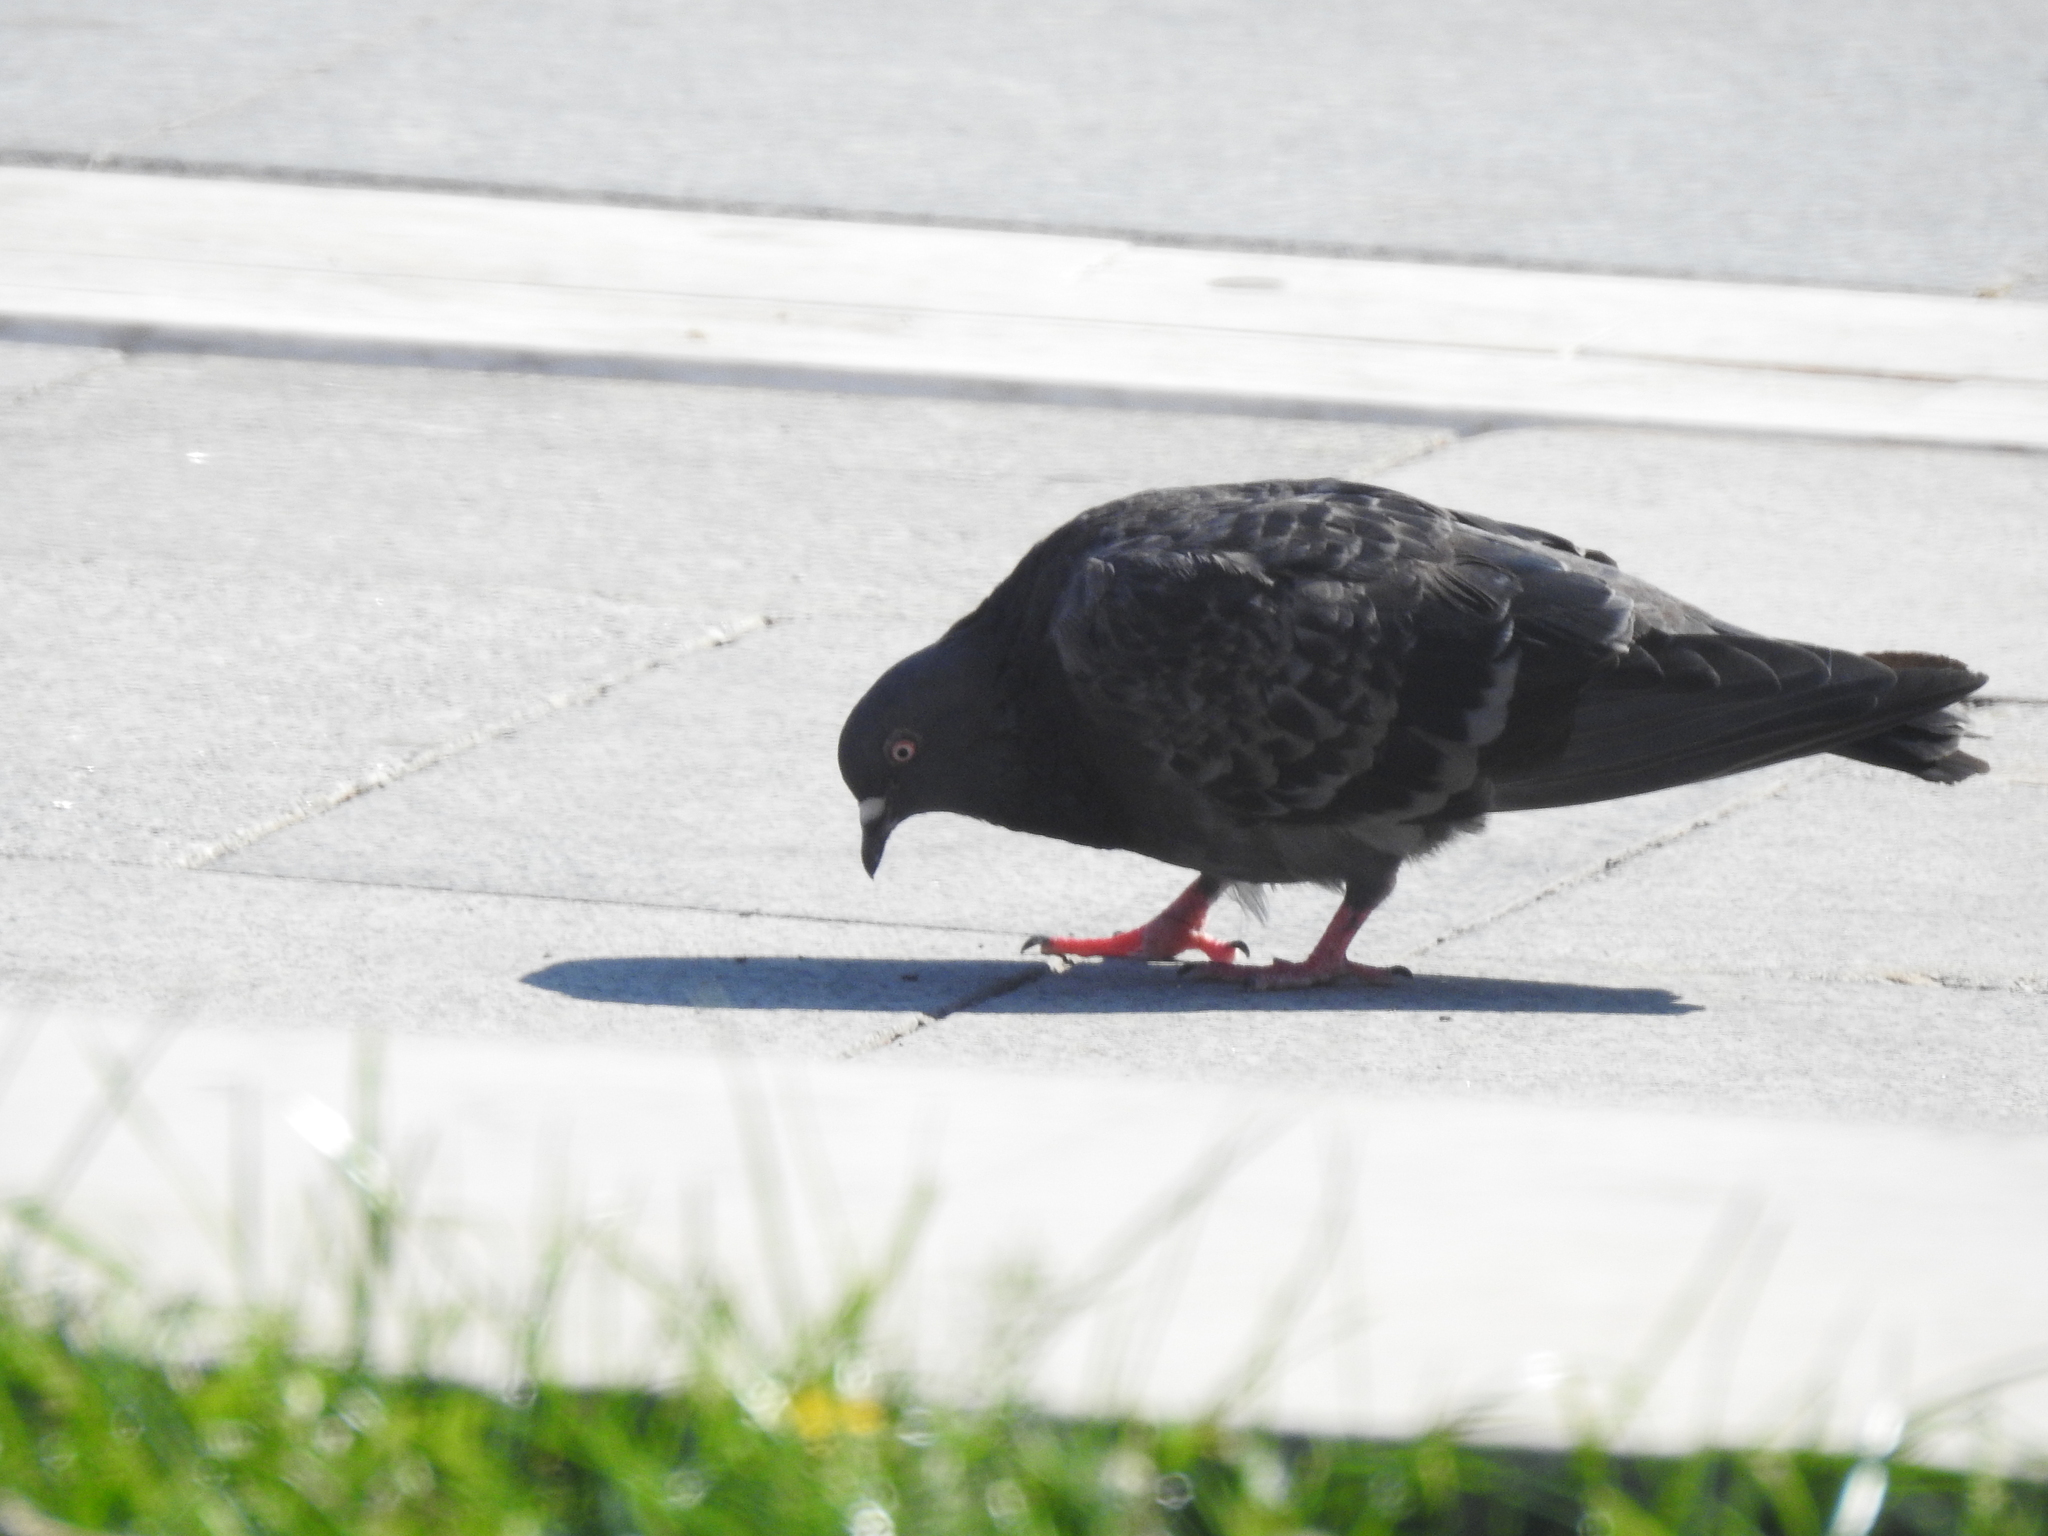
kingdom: Animalia
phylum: Chordata
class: Aves
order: Columbiformes
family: Columbidae
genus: Columba
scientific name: Columba livia
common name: Rock pigeon
